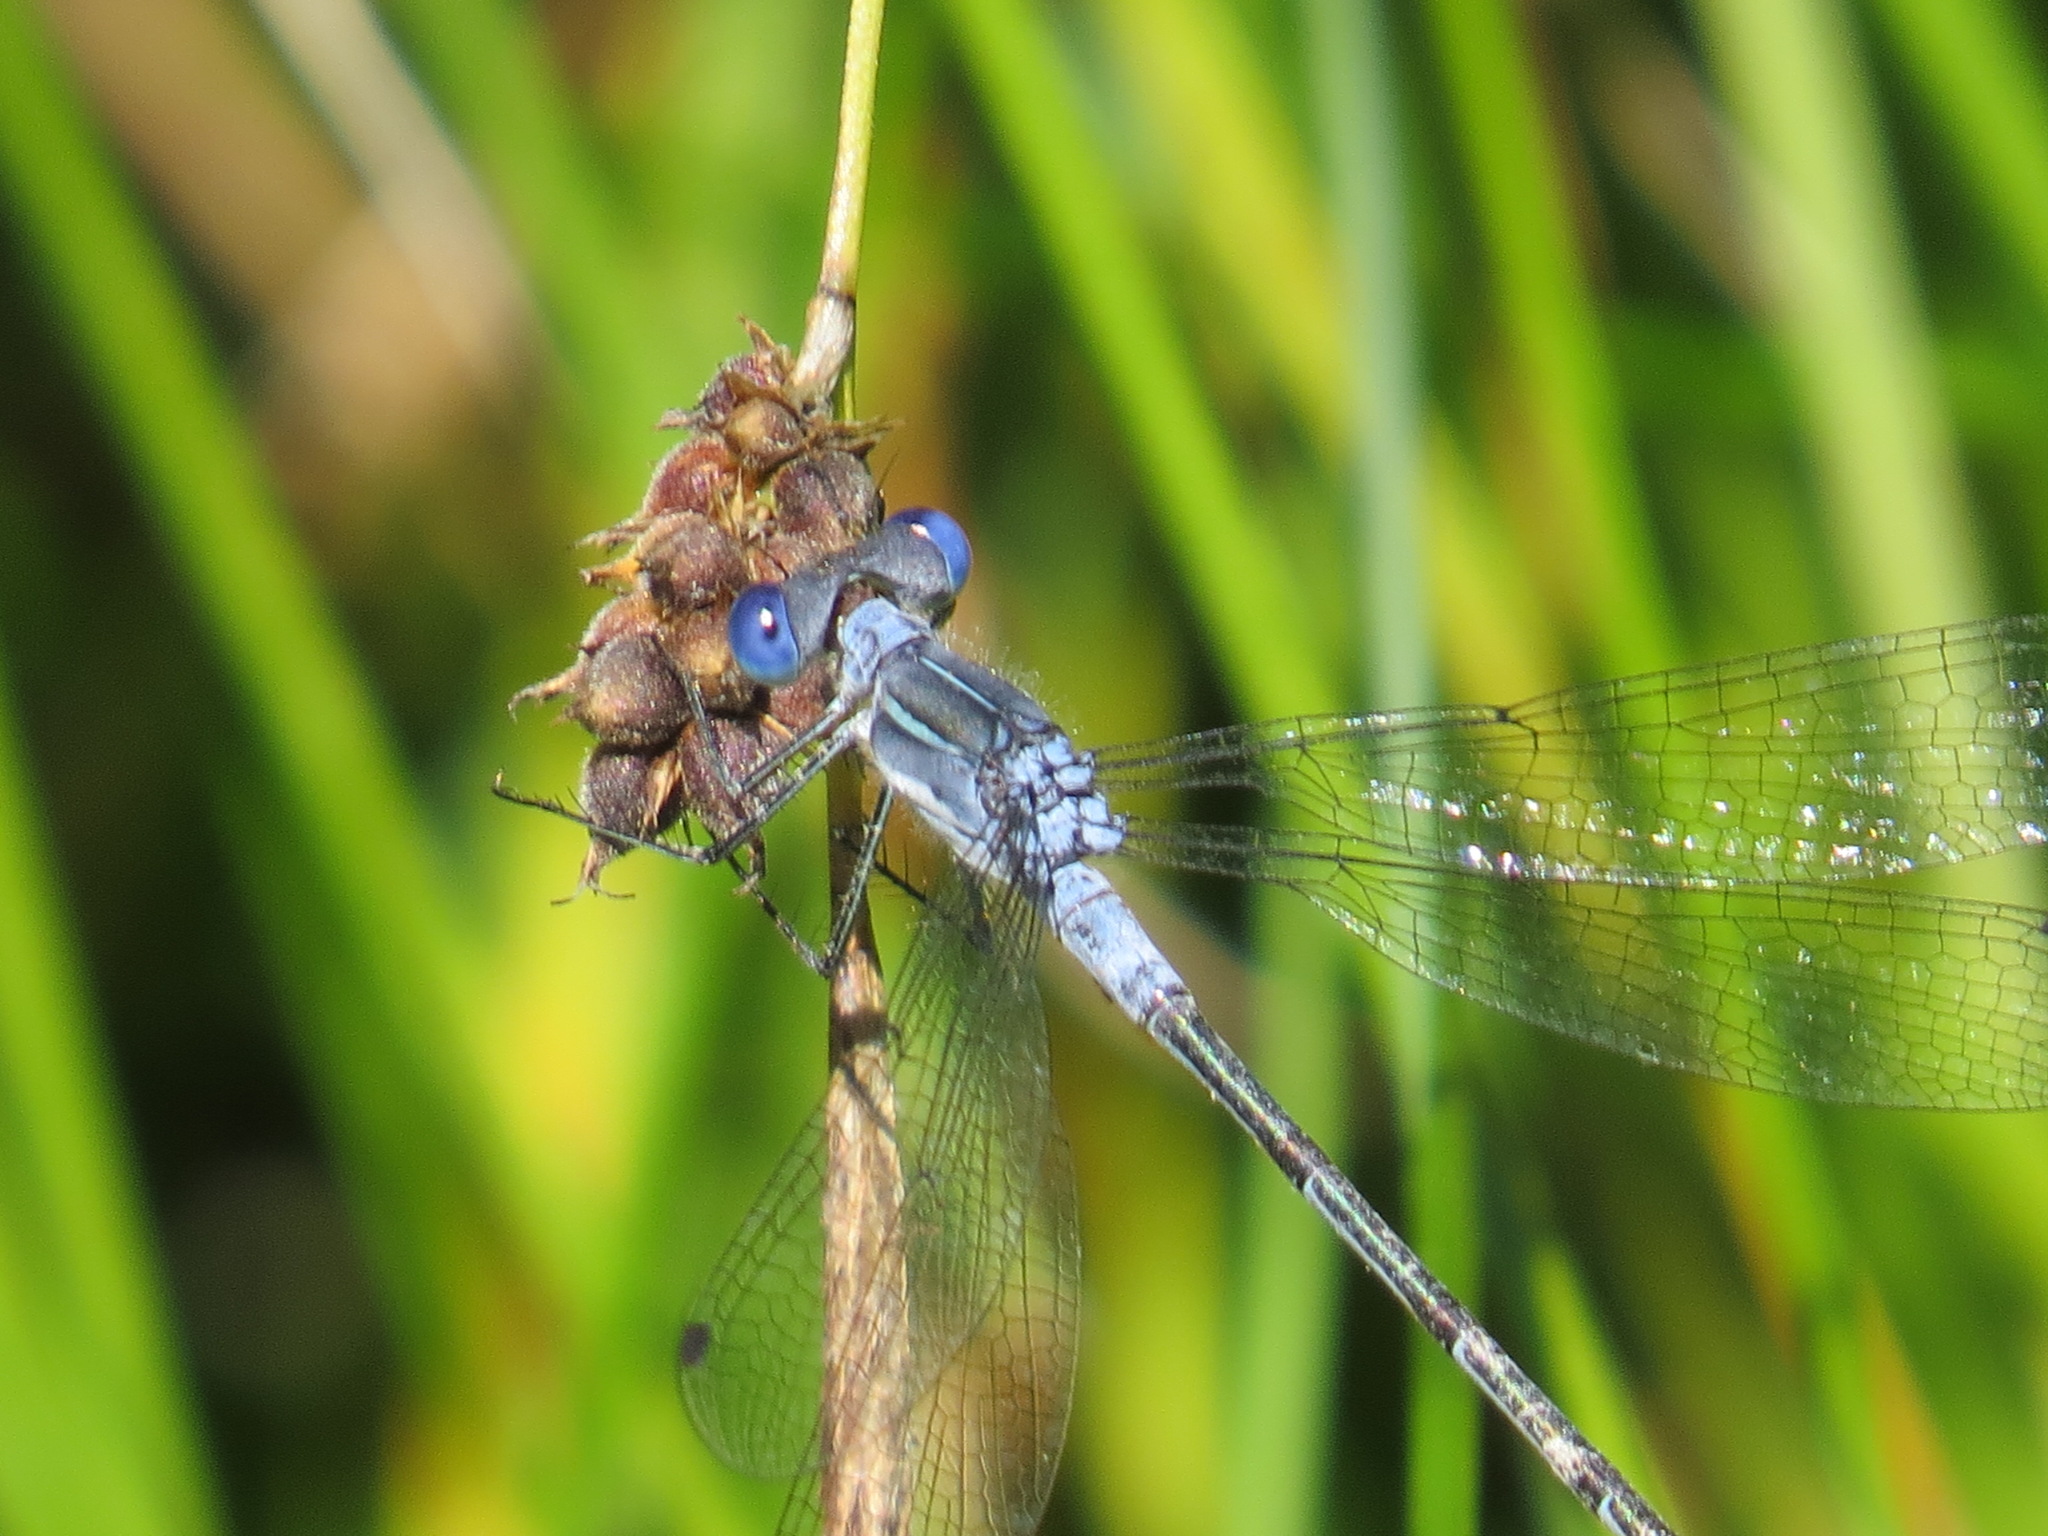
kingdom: Animalia
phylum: Arthropoda
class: Insecta
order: Odonata
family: Lestidae
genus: Lestes
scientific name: Lestes disjunctus
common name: Northern spreadwing
